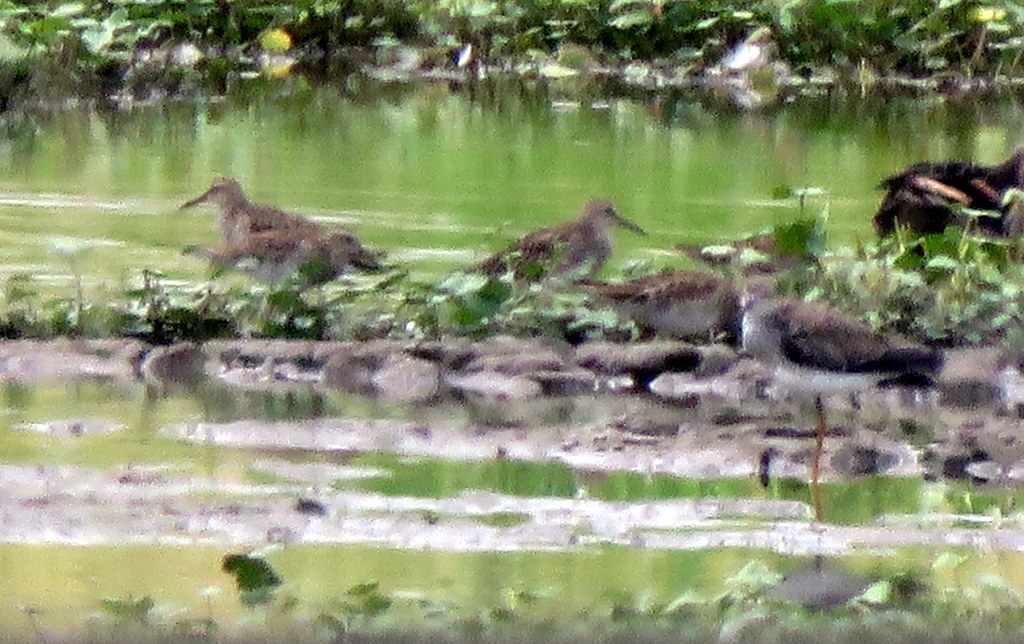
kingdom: Animalia
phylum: Chordata
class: Aves
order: Charadriiformes
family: Scolopacidae
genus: Calidris
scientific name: Calidris melanotos
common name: Pectoral sandpiper
